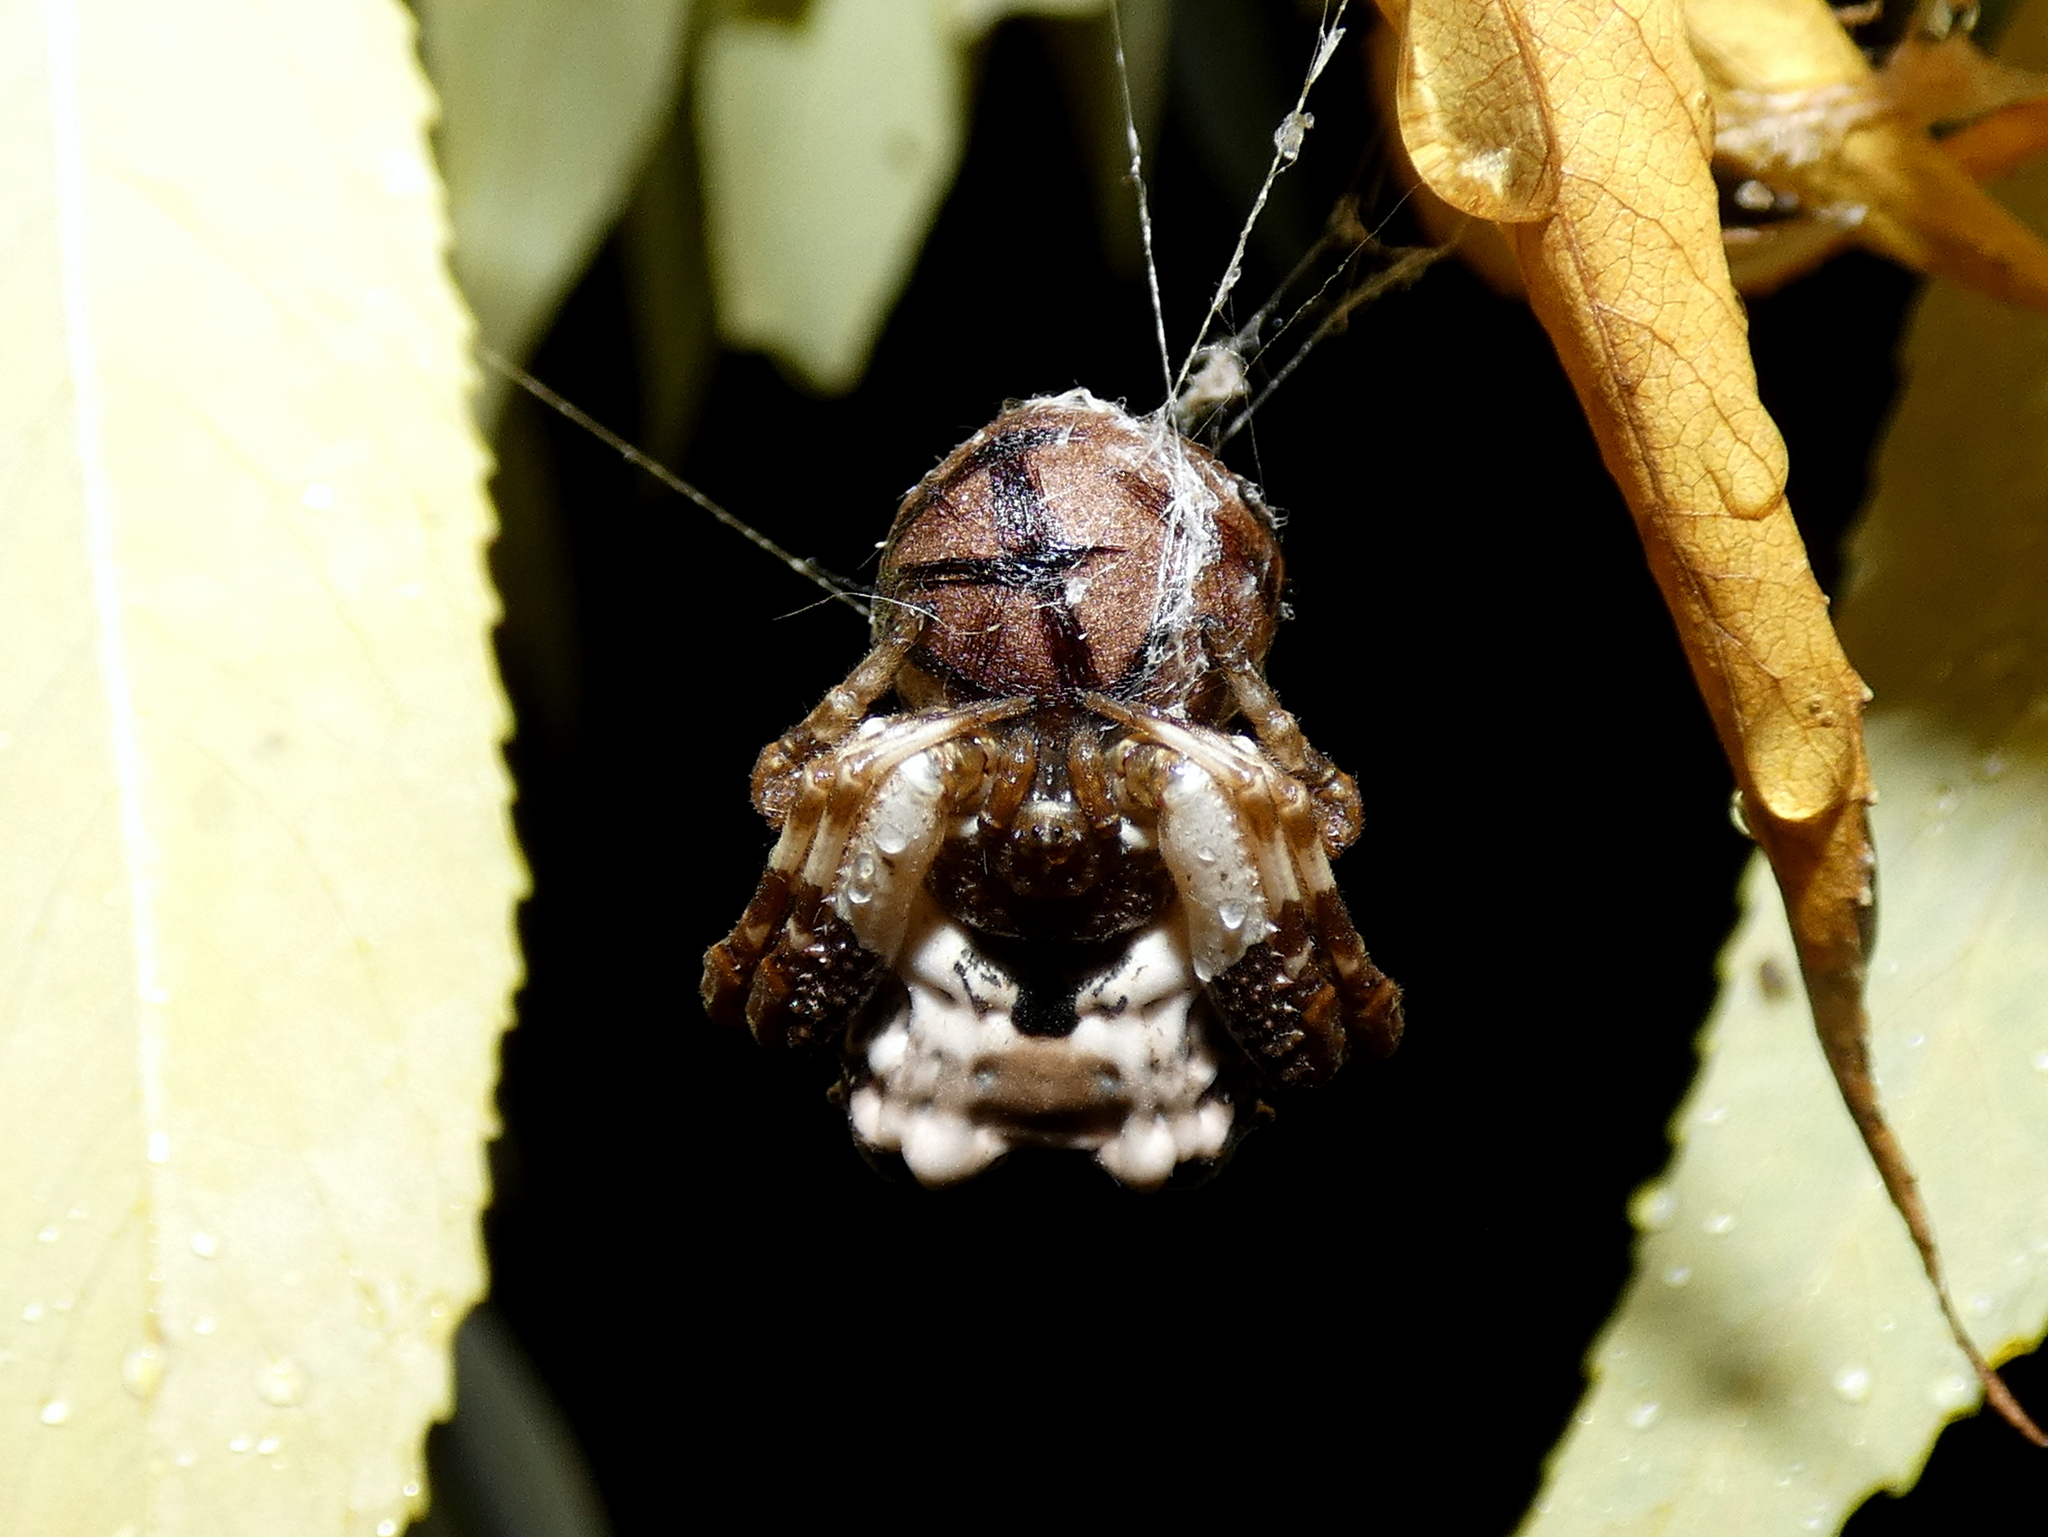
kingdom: Animalia
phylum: Arthropoda
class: Arachnida
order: Araneae
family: Araneidae
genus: Celaenia
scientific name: Celaenia excavata
